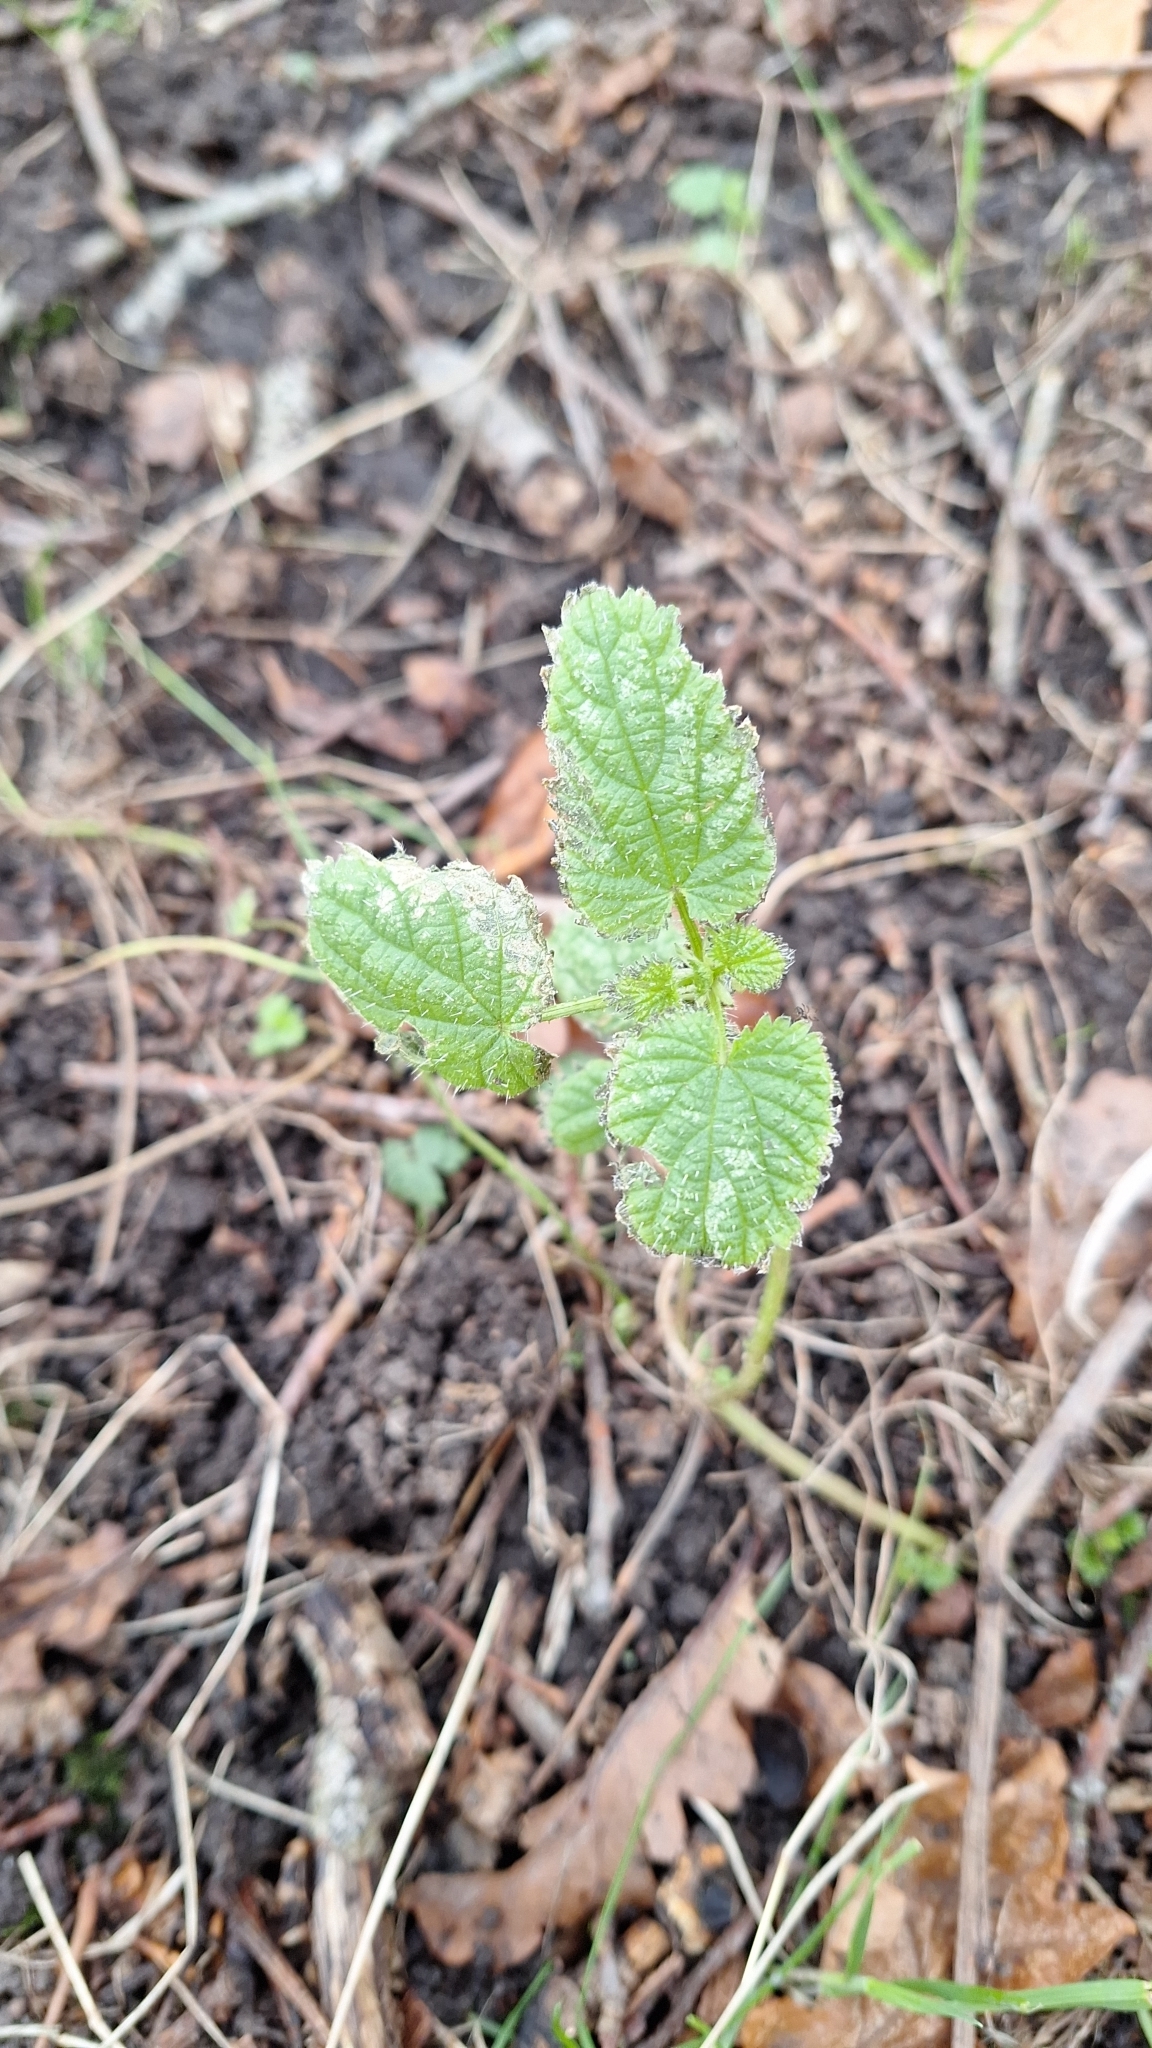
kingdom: Plantae
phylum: Tracheophyta
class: Magnoliopsida
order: Rosales
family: Urticaceae
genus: Urtica
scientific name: Urtica dioica
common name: Common nettle
